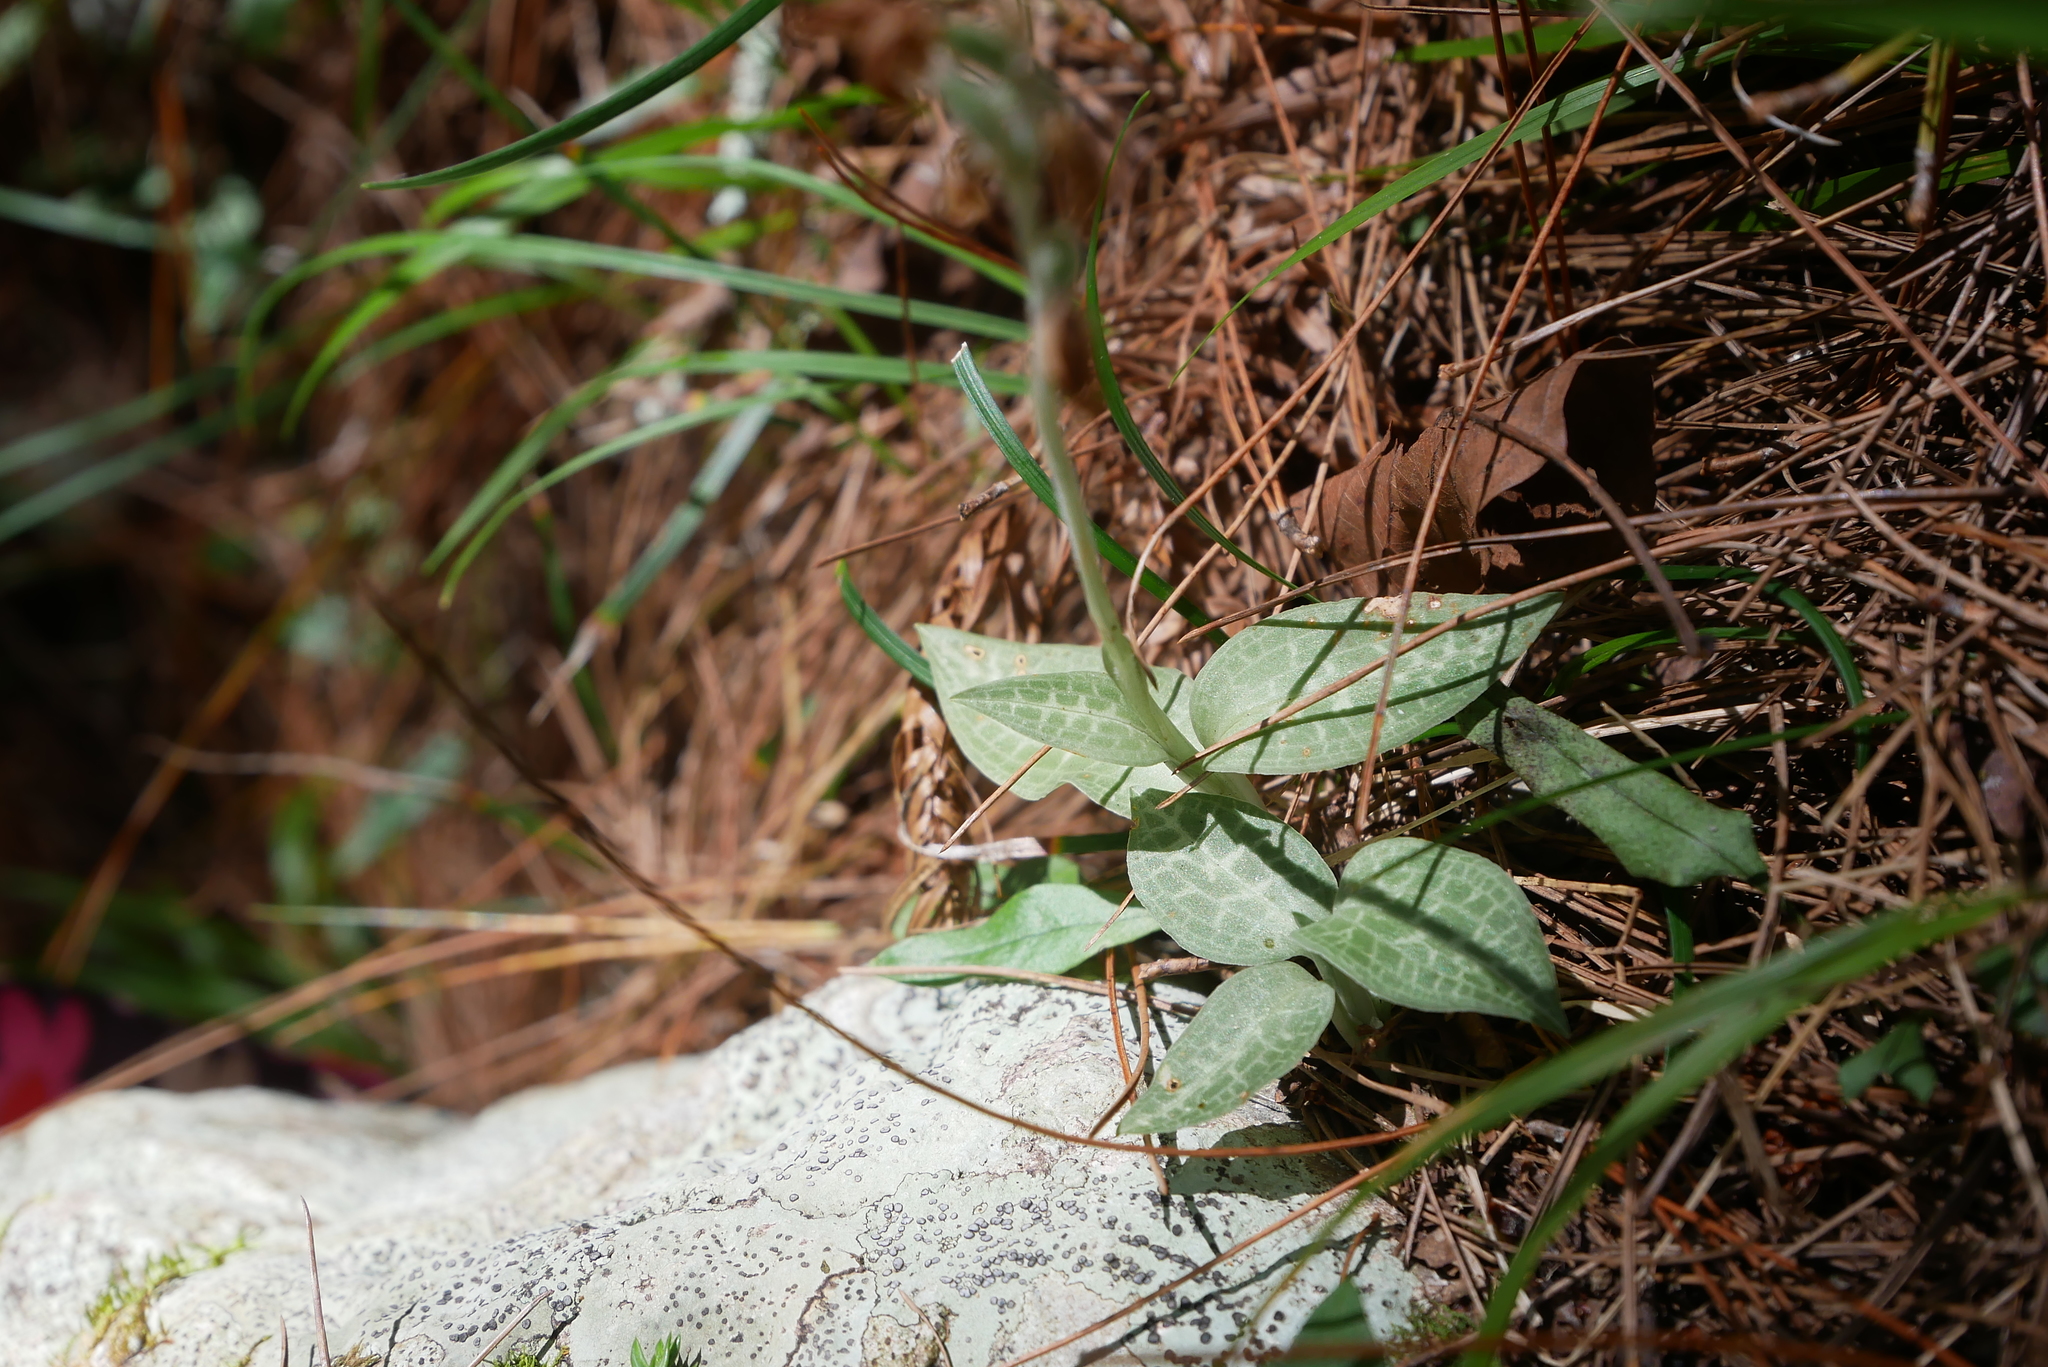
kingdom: Plantae
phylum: Tracheophyta
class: Liliopsida
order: Asparagales
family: Orchidaceae
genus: Goodyera
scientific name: Goodyera schlechtendaliana
